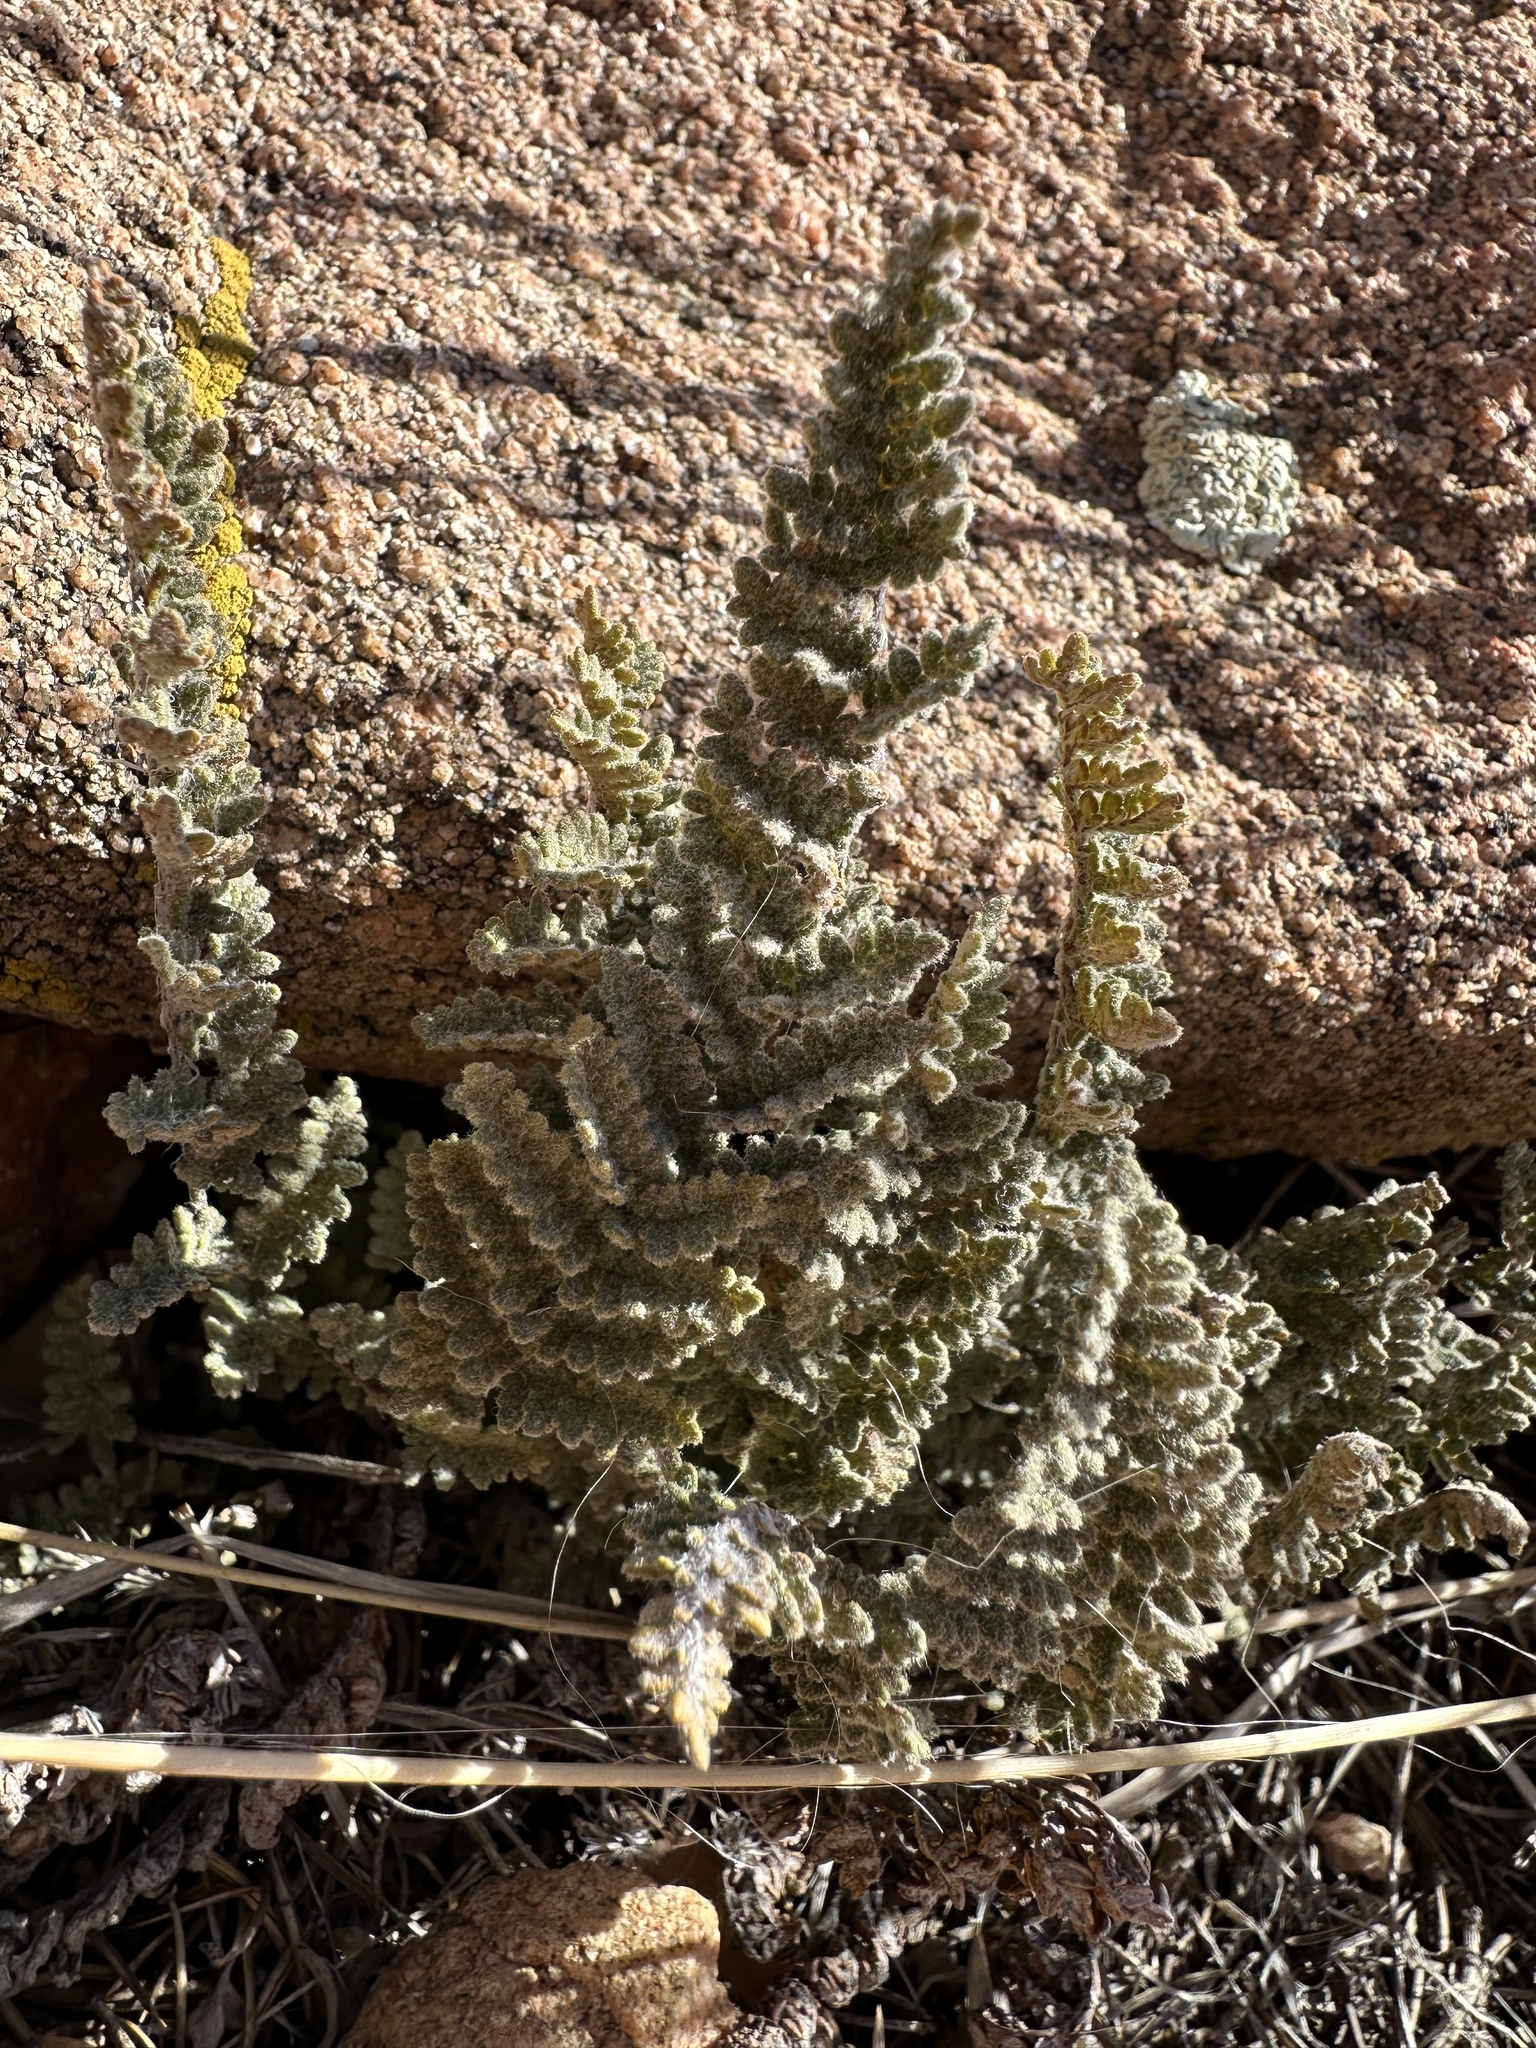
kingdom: Plantae
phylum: Tracheophyta
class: Polypodiopsida
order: Polypodiales
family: Pteridaceae
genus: Myriopteris
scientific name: Myriopteris rufa
